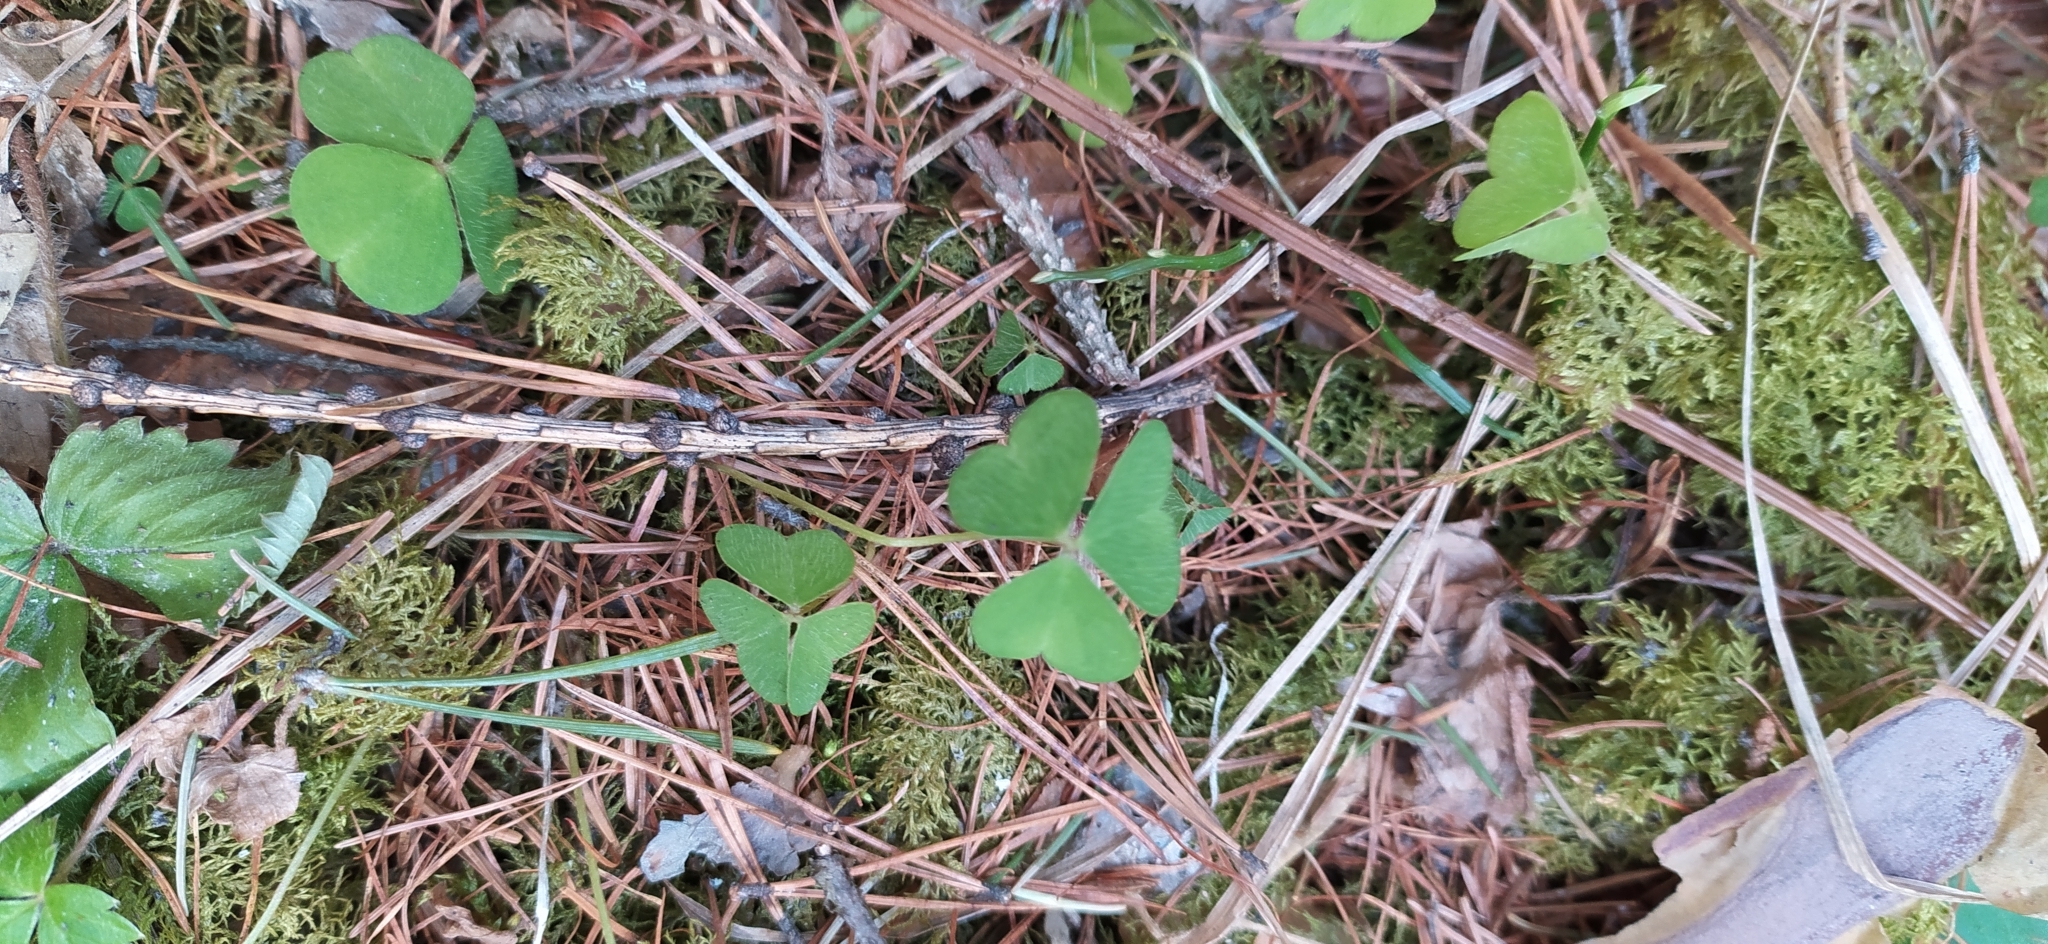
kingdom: Plantae
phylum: Tracheophyta
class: Magnoliopsida
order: Oxalidales
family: Oxalidaceae
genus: Oxalis
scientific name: Oxalis acetosella
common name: Wood-sorrel
